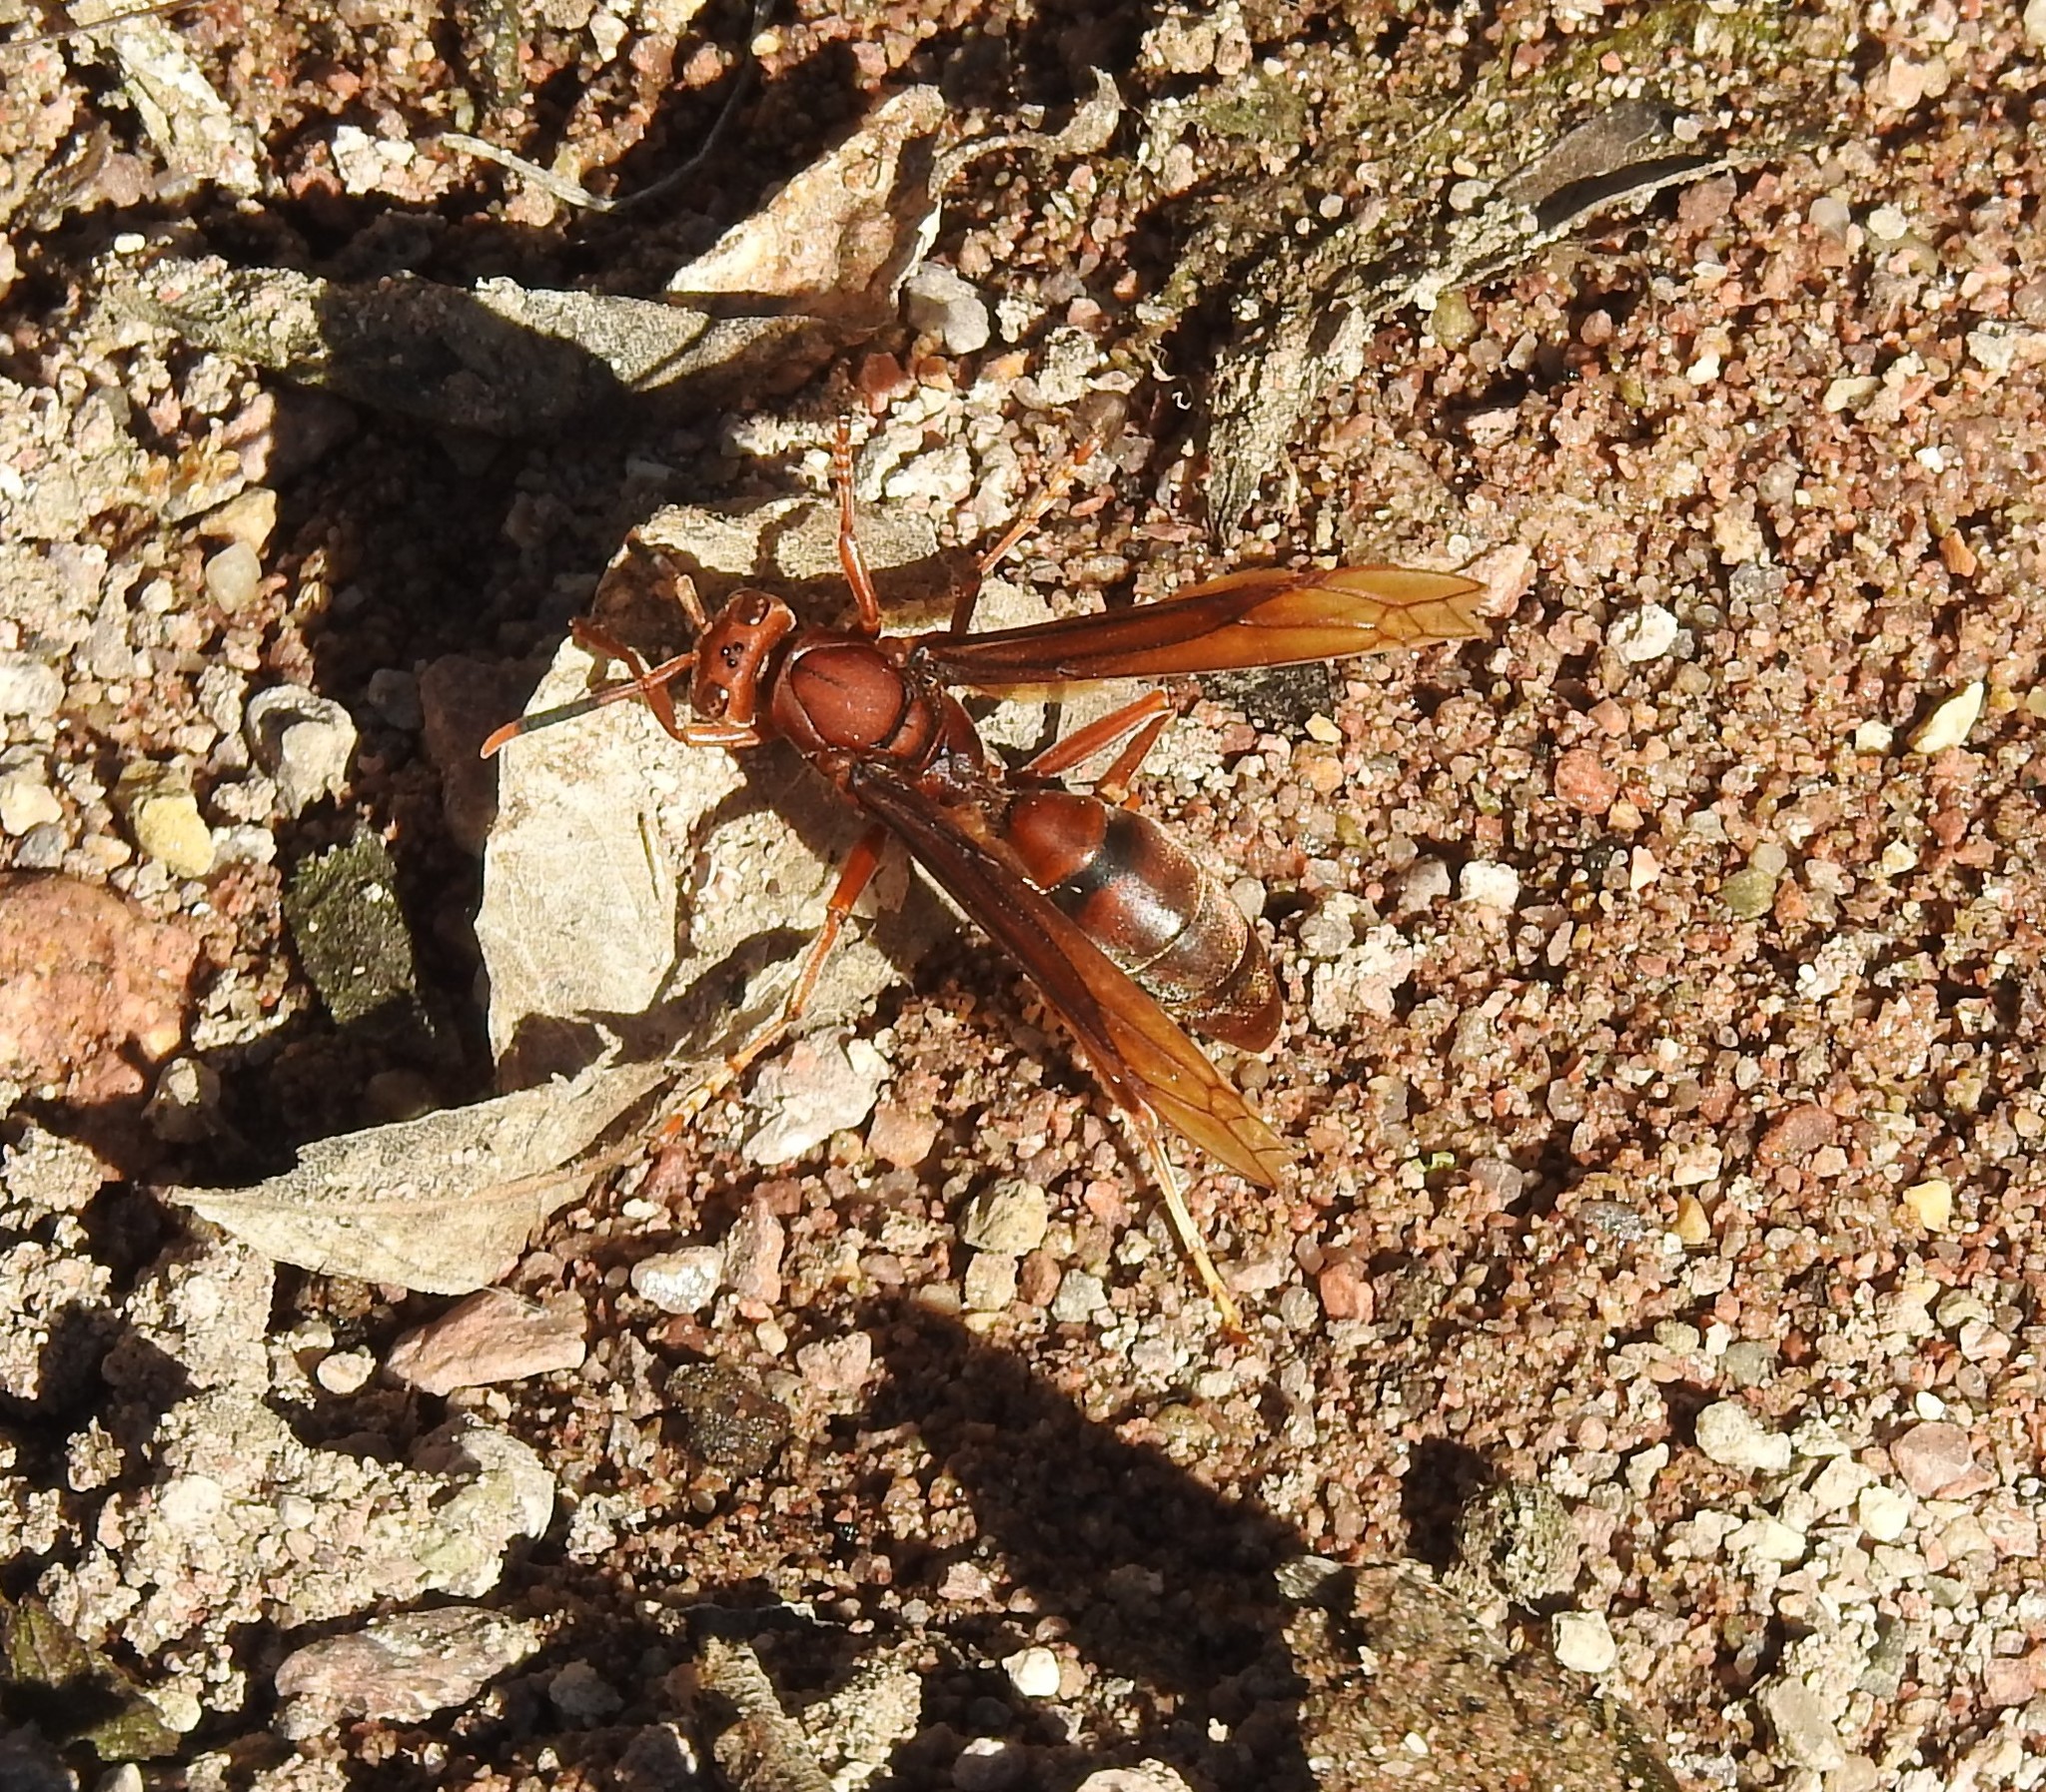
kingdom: Animalia
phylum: Arthropoda
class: Insecta
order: Hymenoptera
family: Eumenidae
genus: Polistes
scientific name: Polistes major
